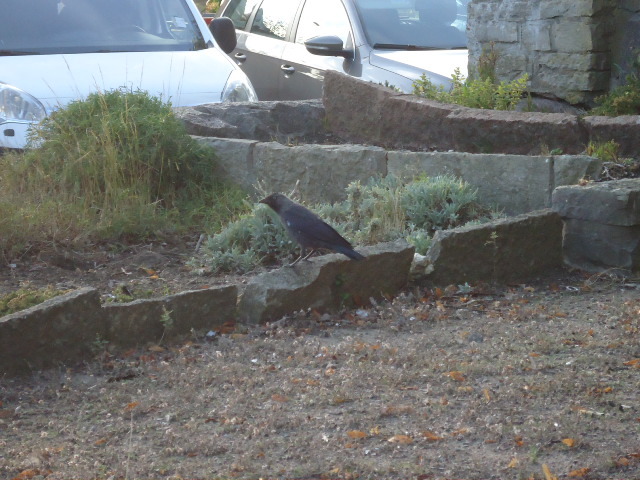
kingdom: Animalia
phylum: Chordata
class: Aves
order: Passeriformes
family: Corvidae
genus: Coloeus
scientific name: Coloeus monedula
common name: Western jackdaw
